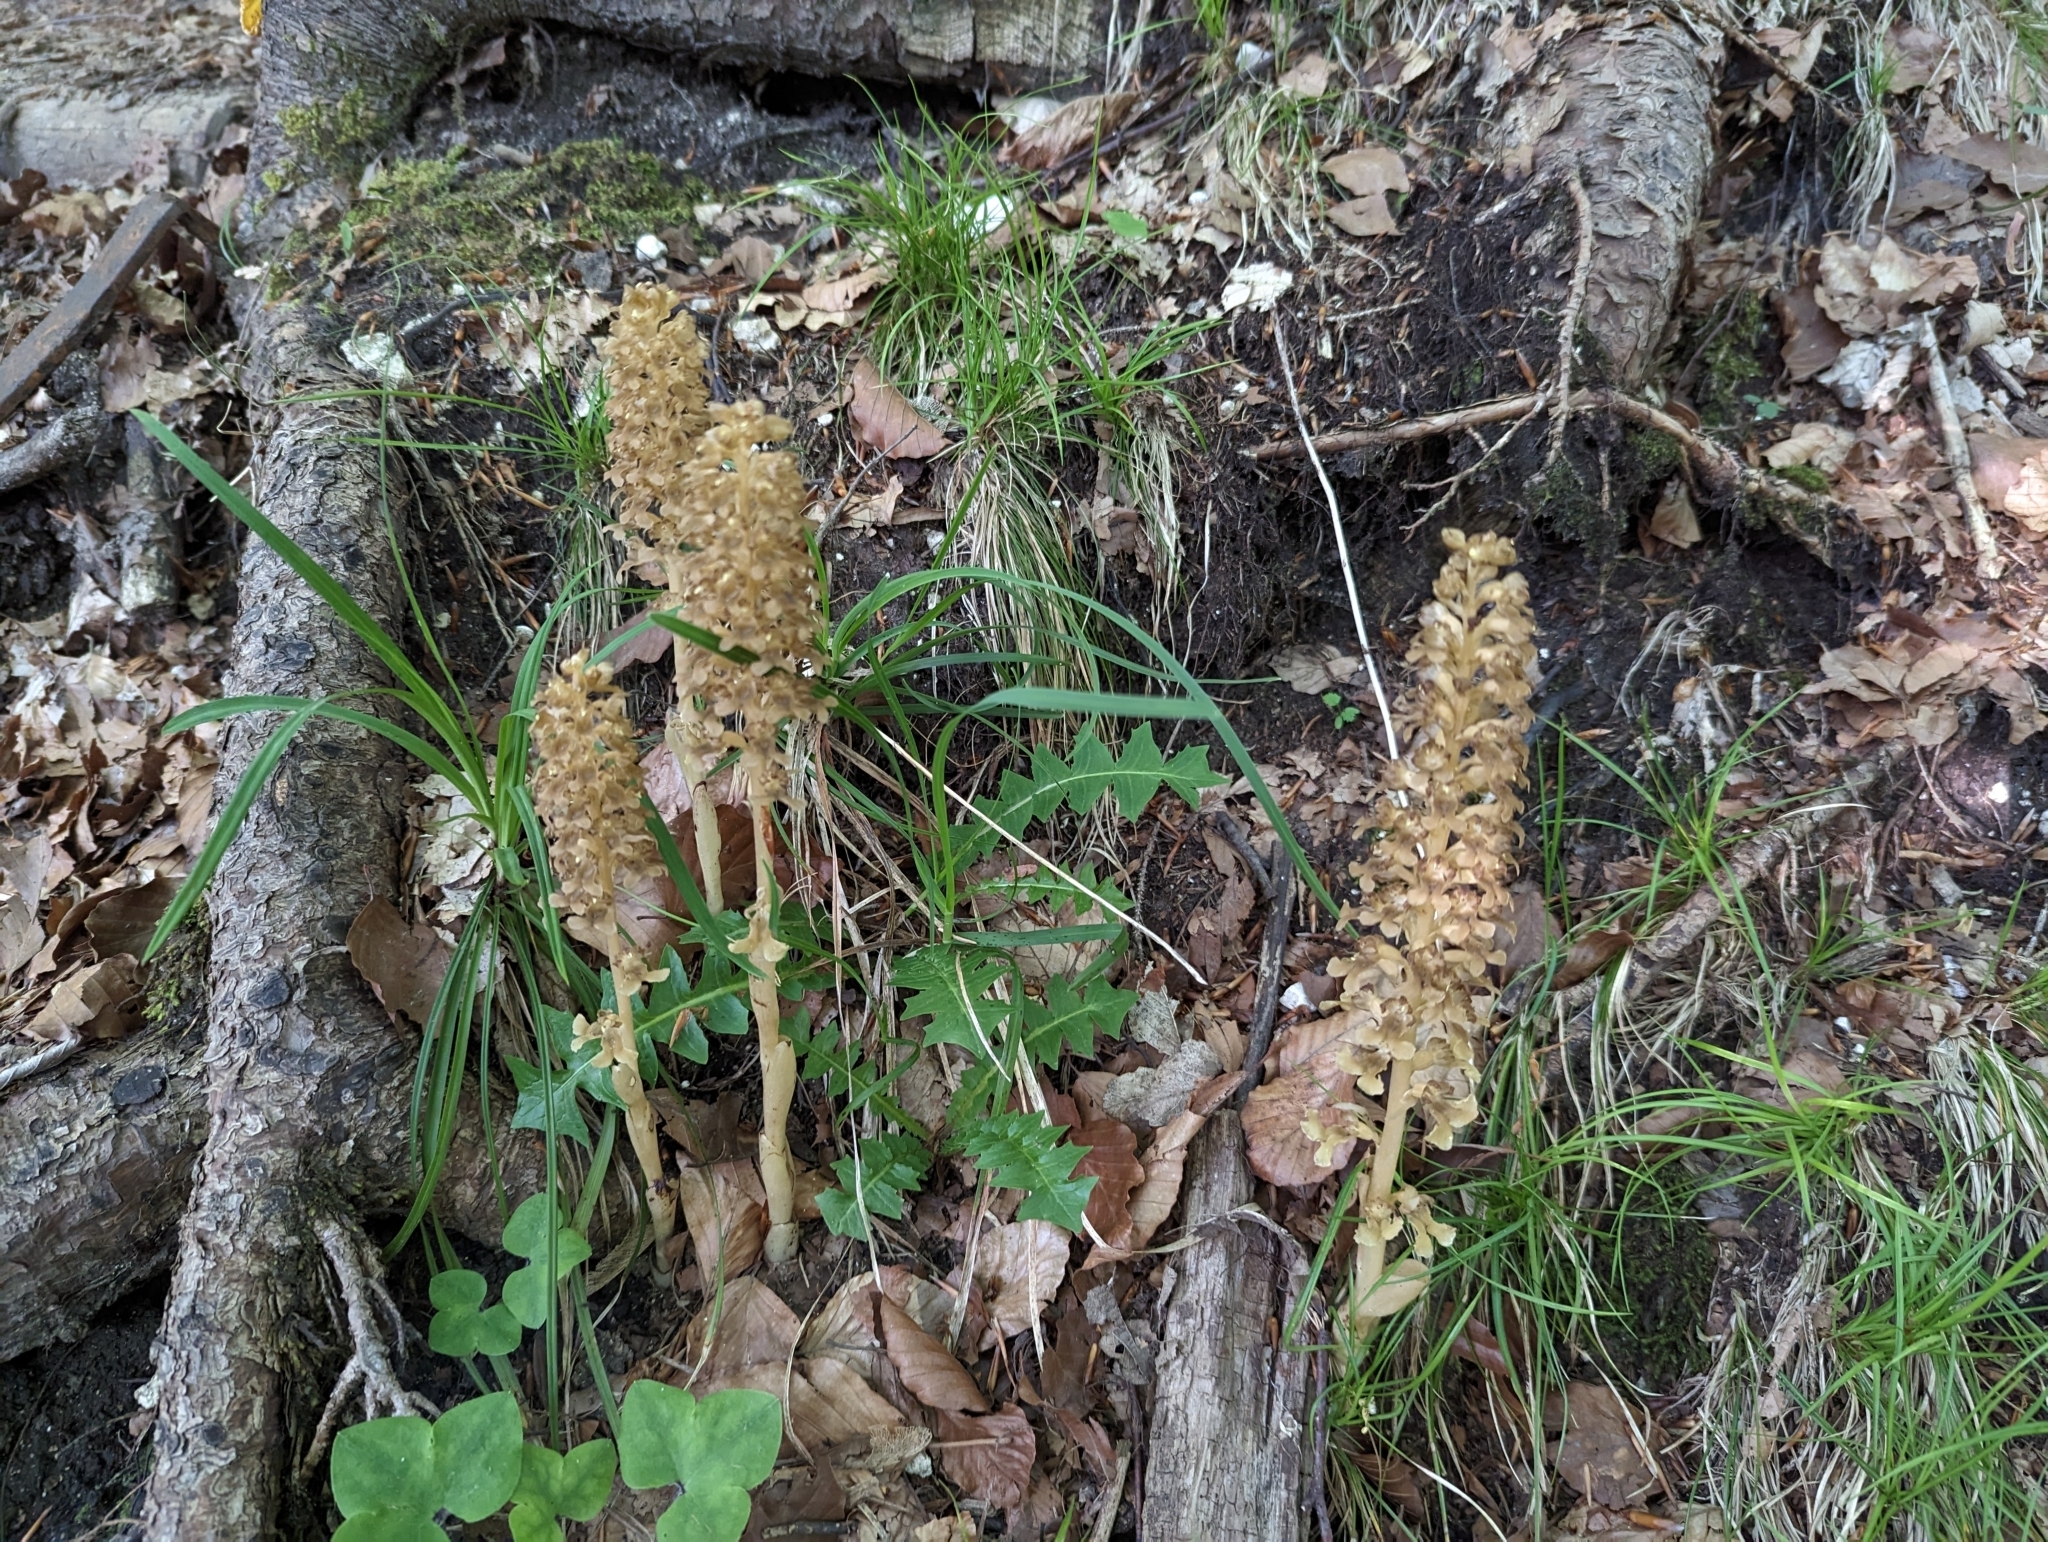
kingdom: Plantae
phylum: Tracheophyta
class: Liliopsida
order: Asparagales
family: Orchidaceae
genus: Neottia
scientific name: Neottia nidus-avis
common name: Bird's-nest orchid
